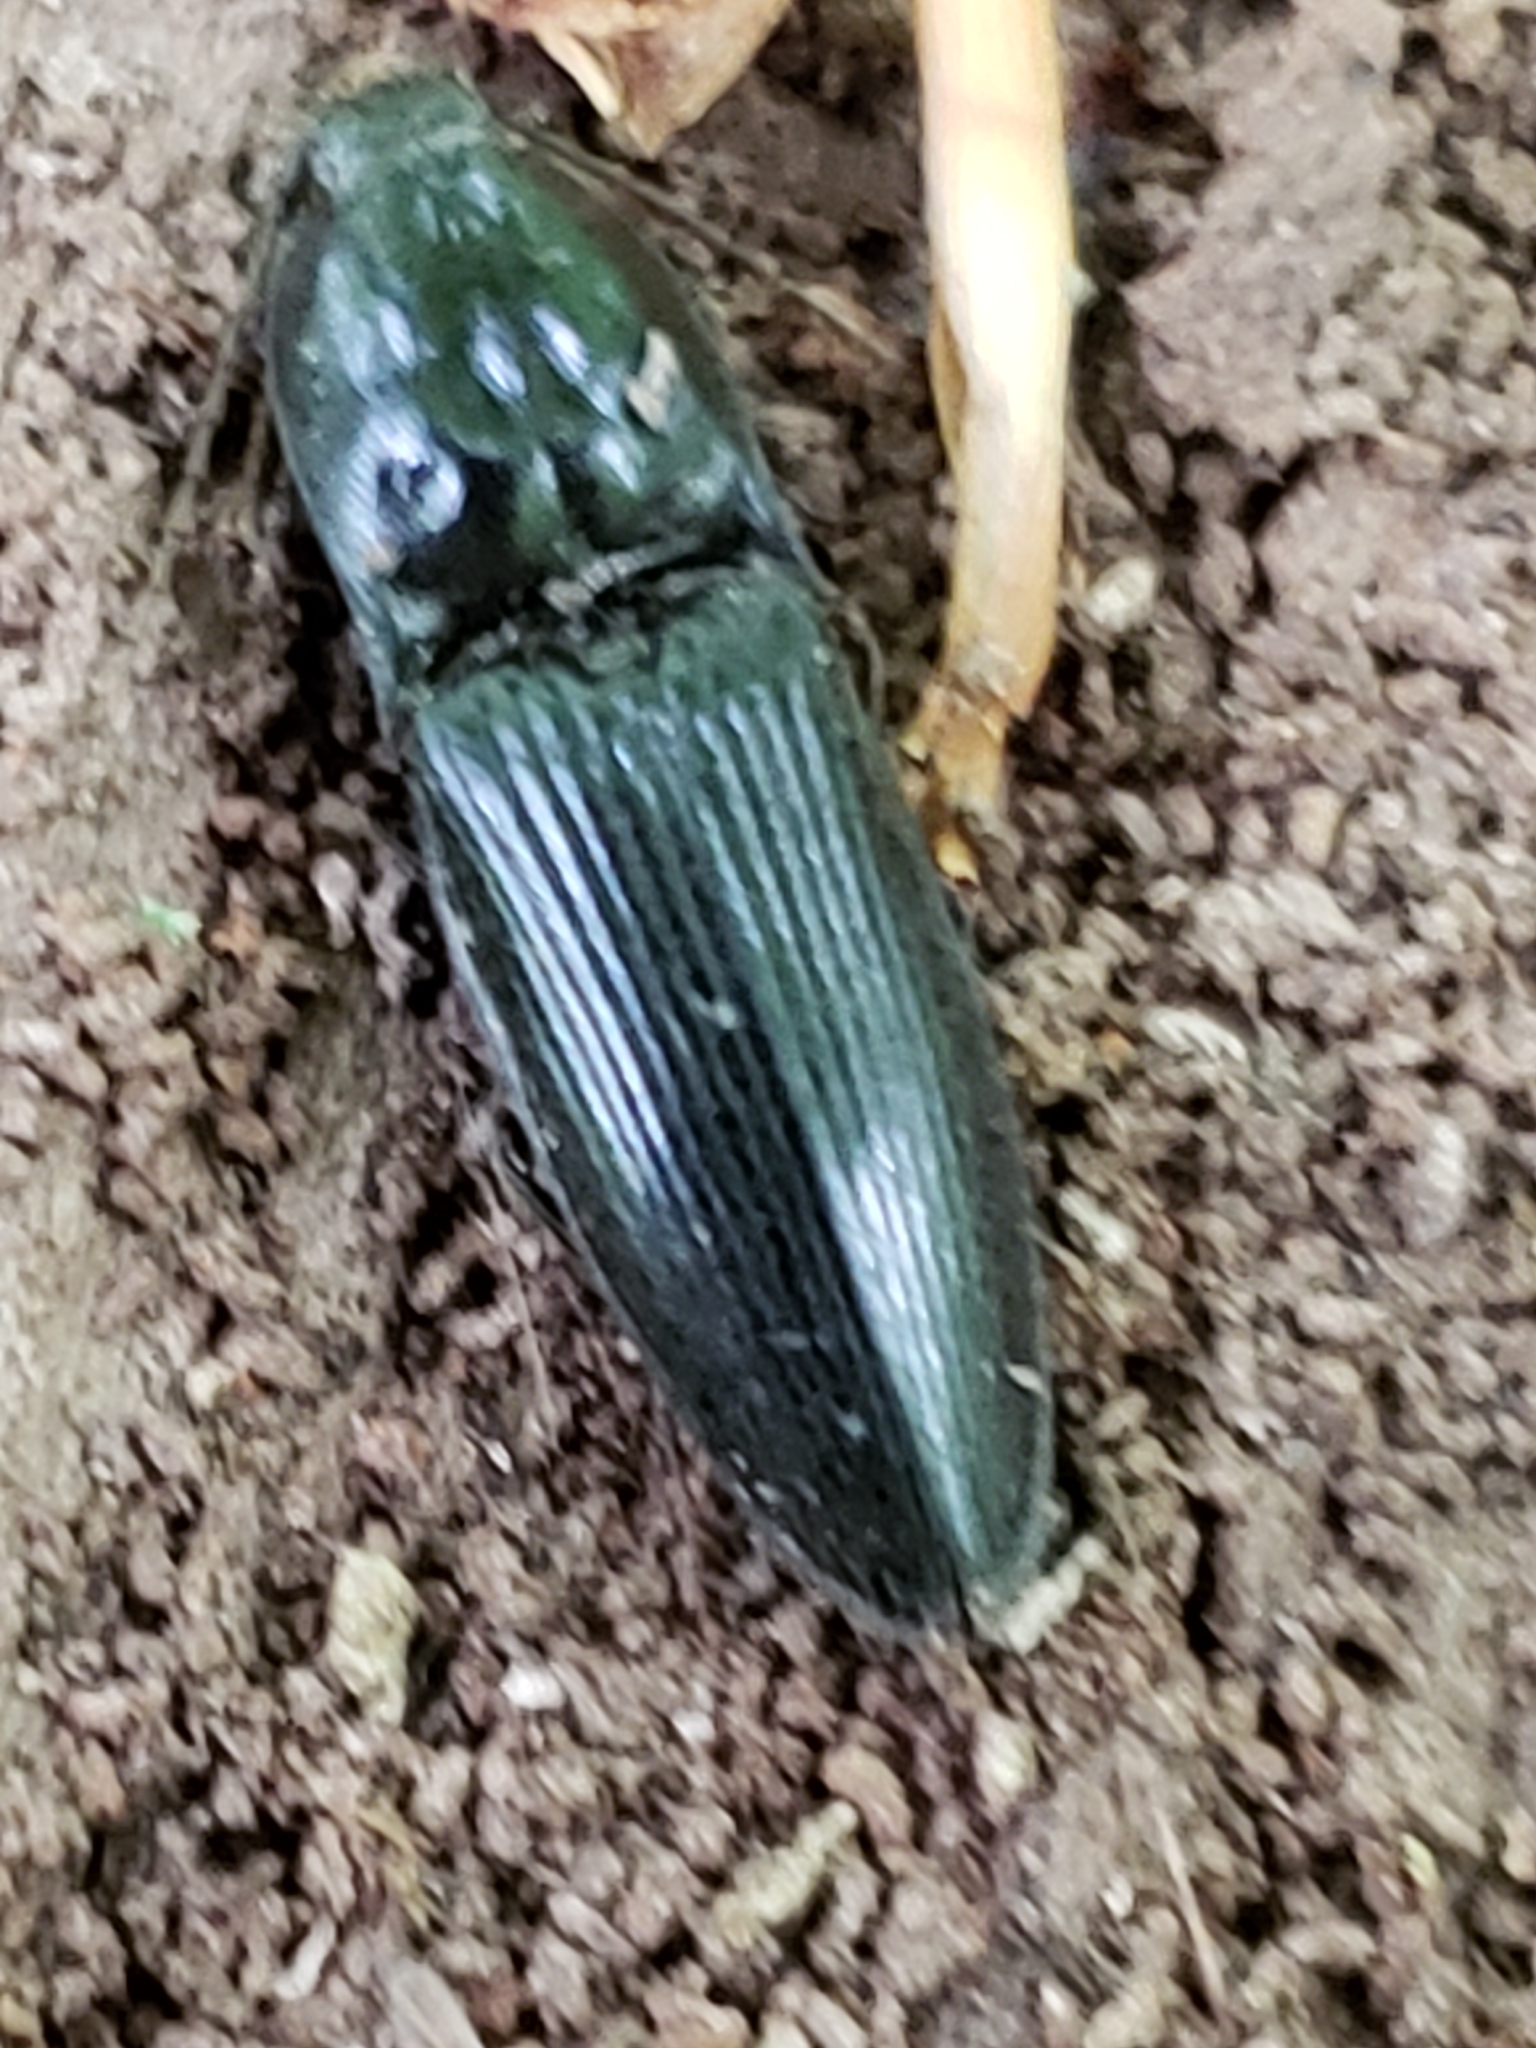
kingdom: Animalia
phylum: Arthropoda
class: Insecta
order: Coleoptera
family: Elateridae
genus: Neopristilophus
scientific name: Neopristilophus
